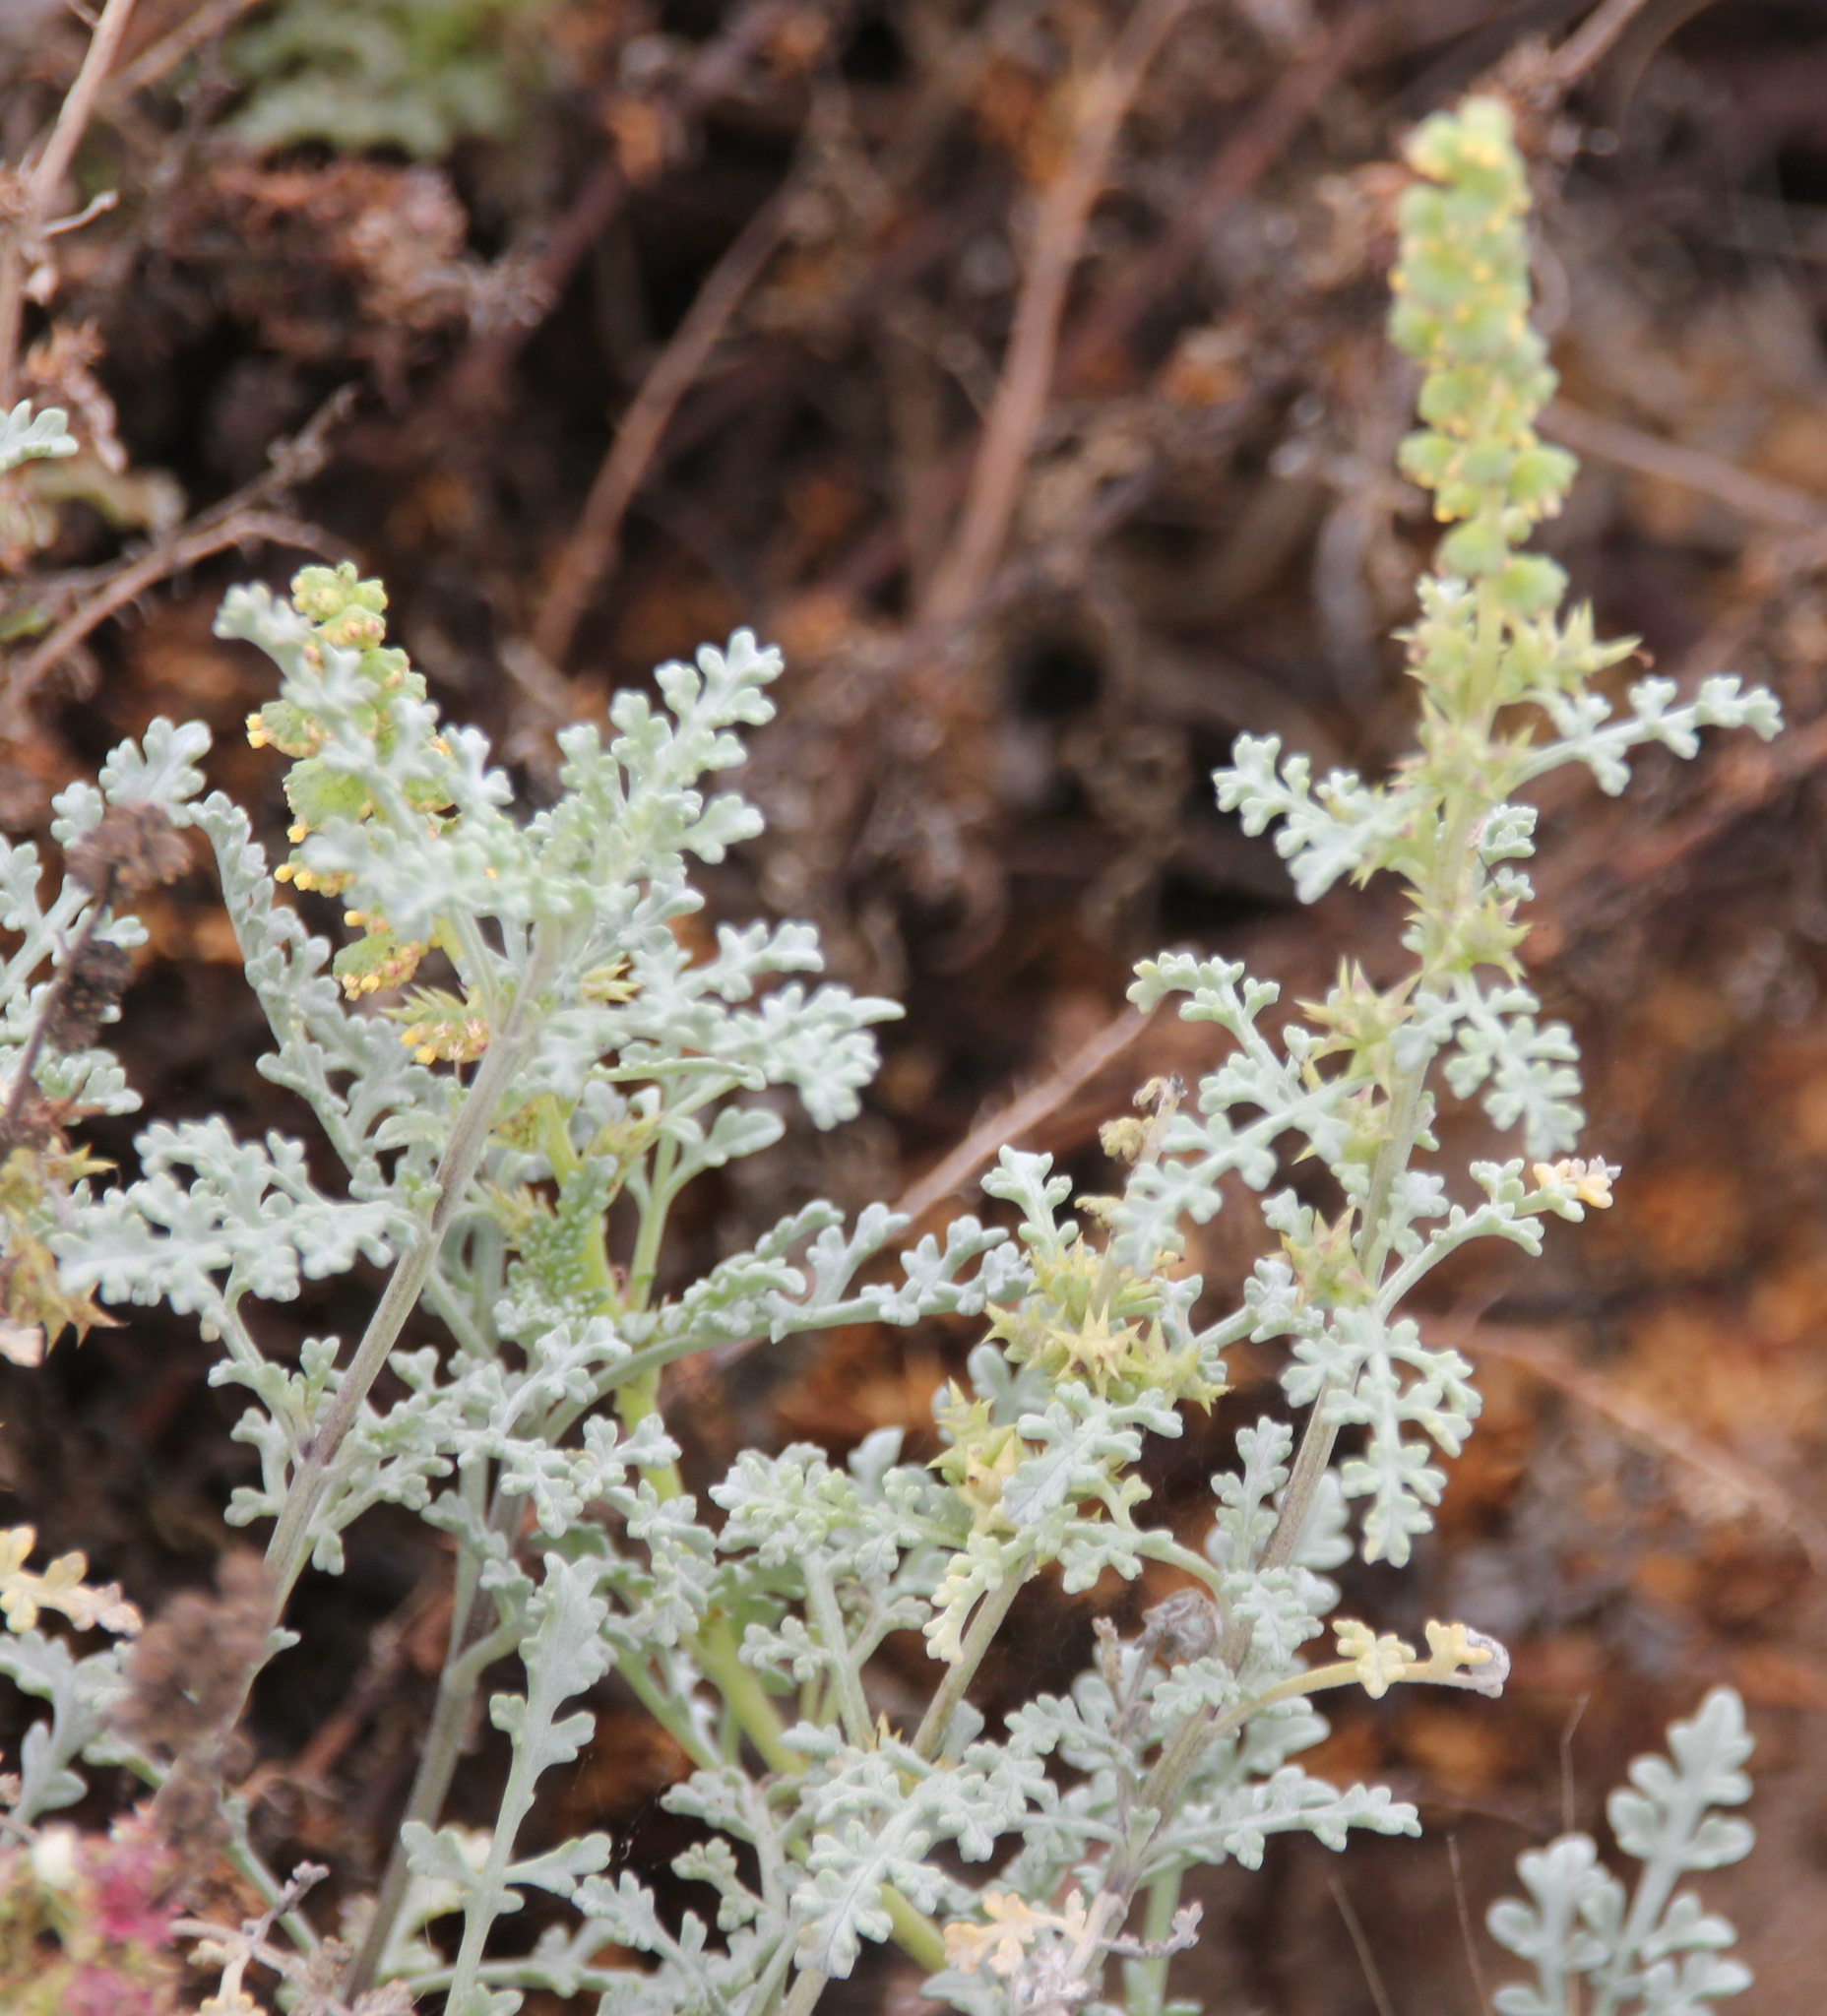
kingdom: Plantae
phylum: Tracheophyta
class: Magnoliopsida
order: Asterales
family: Asteraceae
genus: Ambrosia
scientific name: Ambrosia chamissonis
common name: Beachbur
